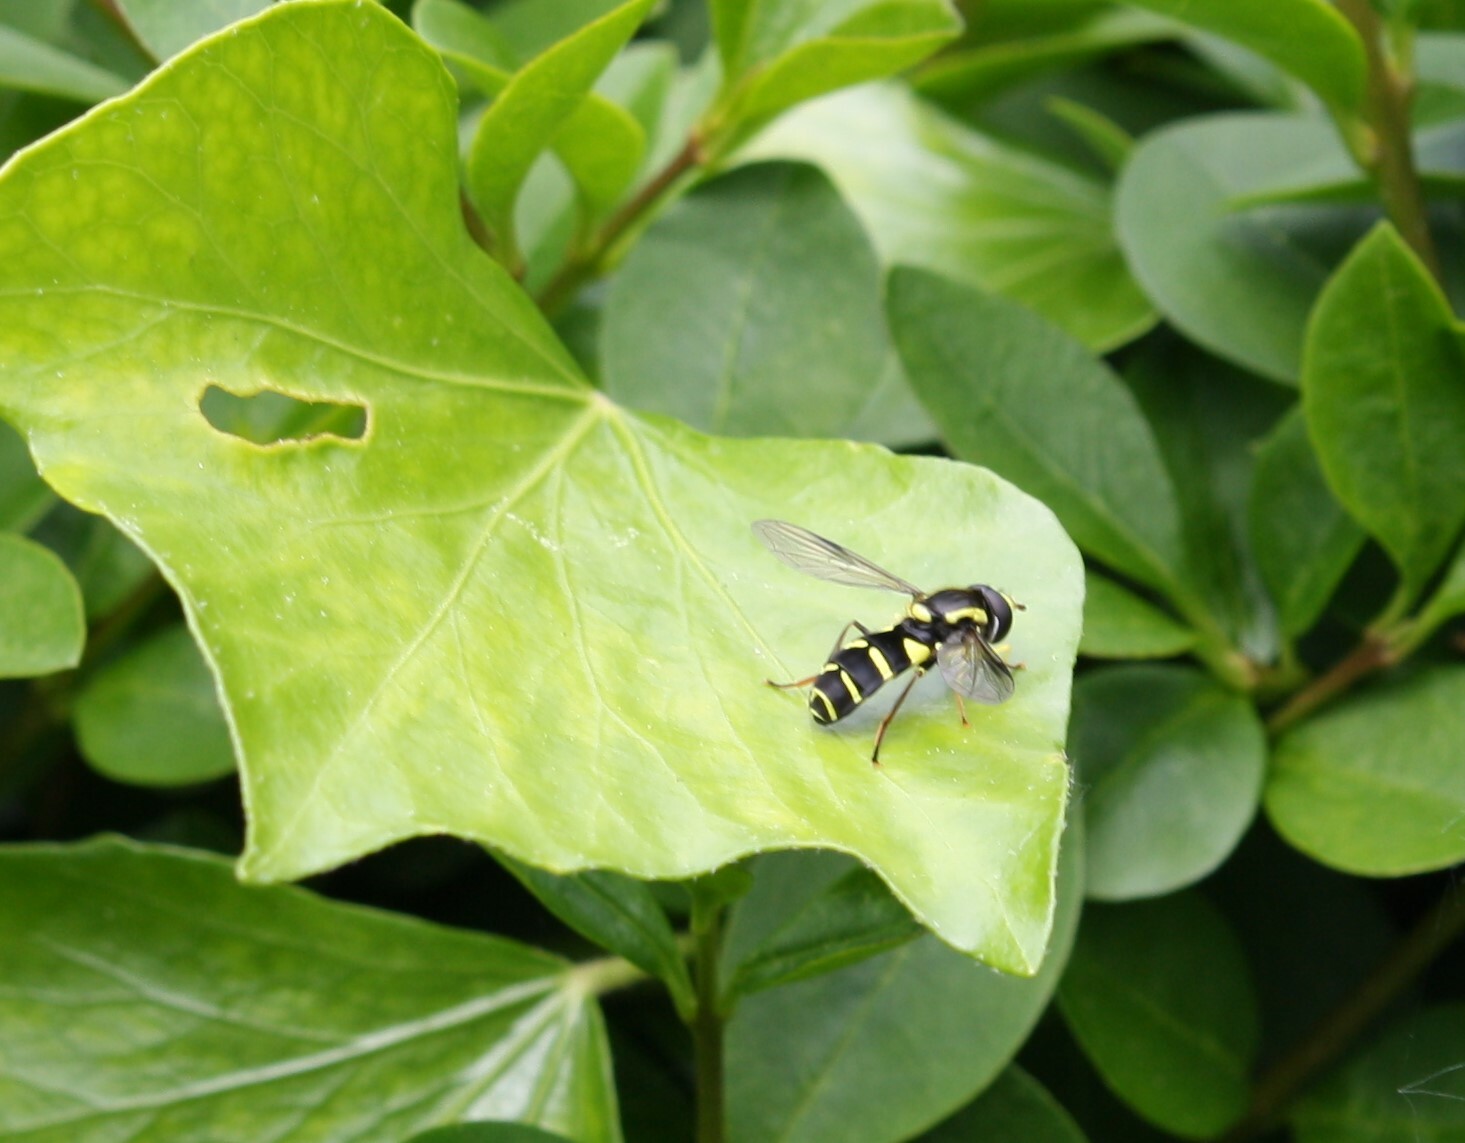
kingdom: Animalia
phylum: Arthropoda
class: Insecta
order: Diptera
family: Syrphidae
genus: Philhelius
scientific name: Philhelius pedissequum
